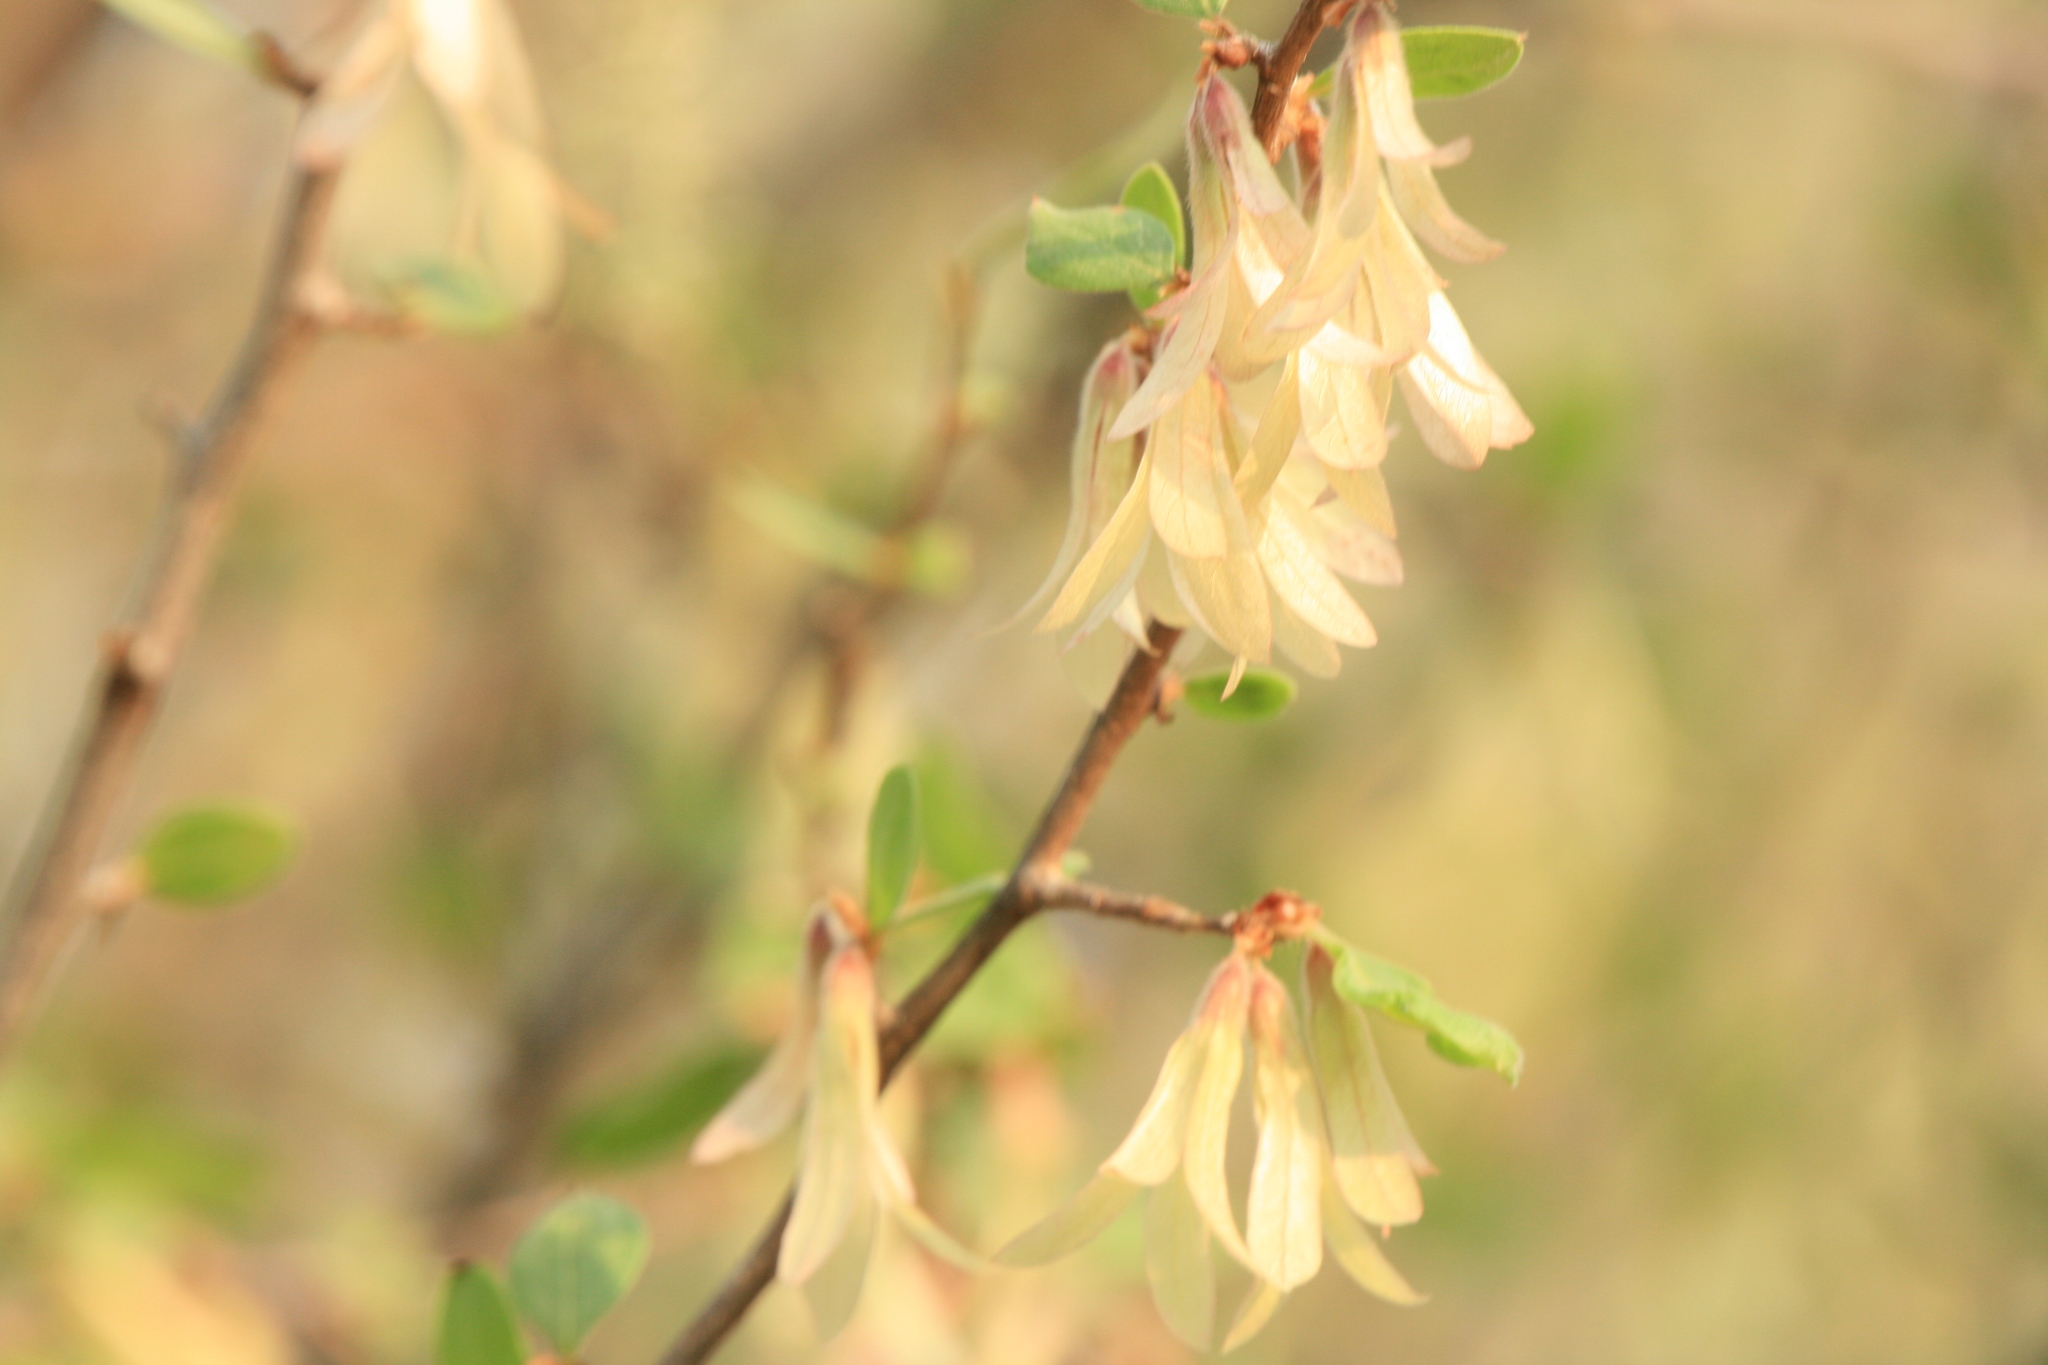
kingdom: Plantae
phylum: Tracheophyta
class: Magnoliopsida
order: Caryophyllales
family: Polygonaceae
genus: Salta
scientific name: Salta triflora
